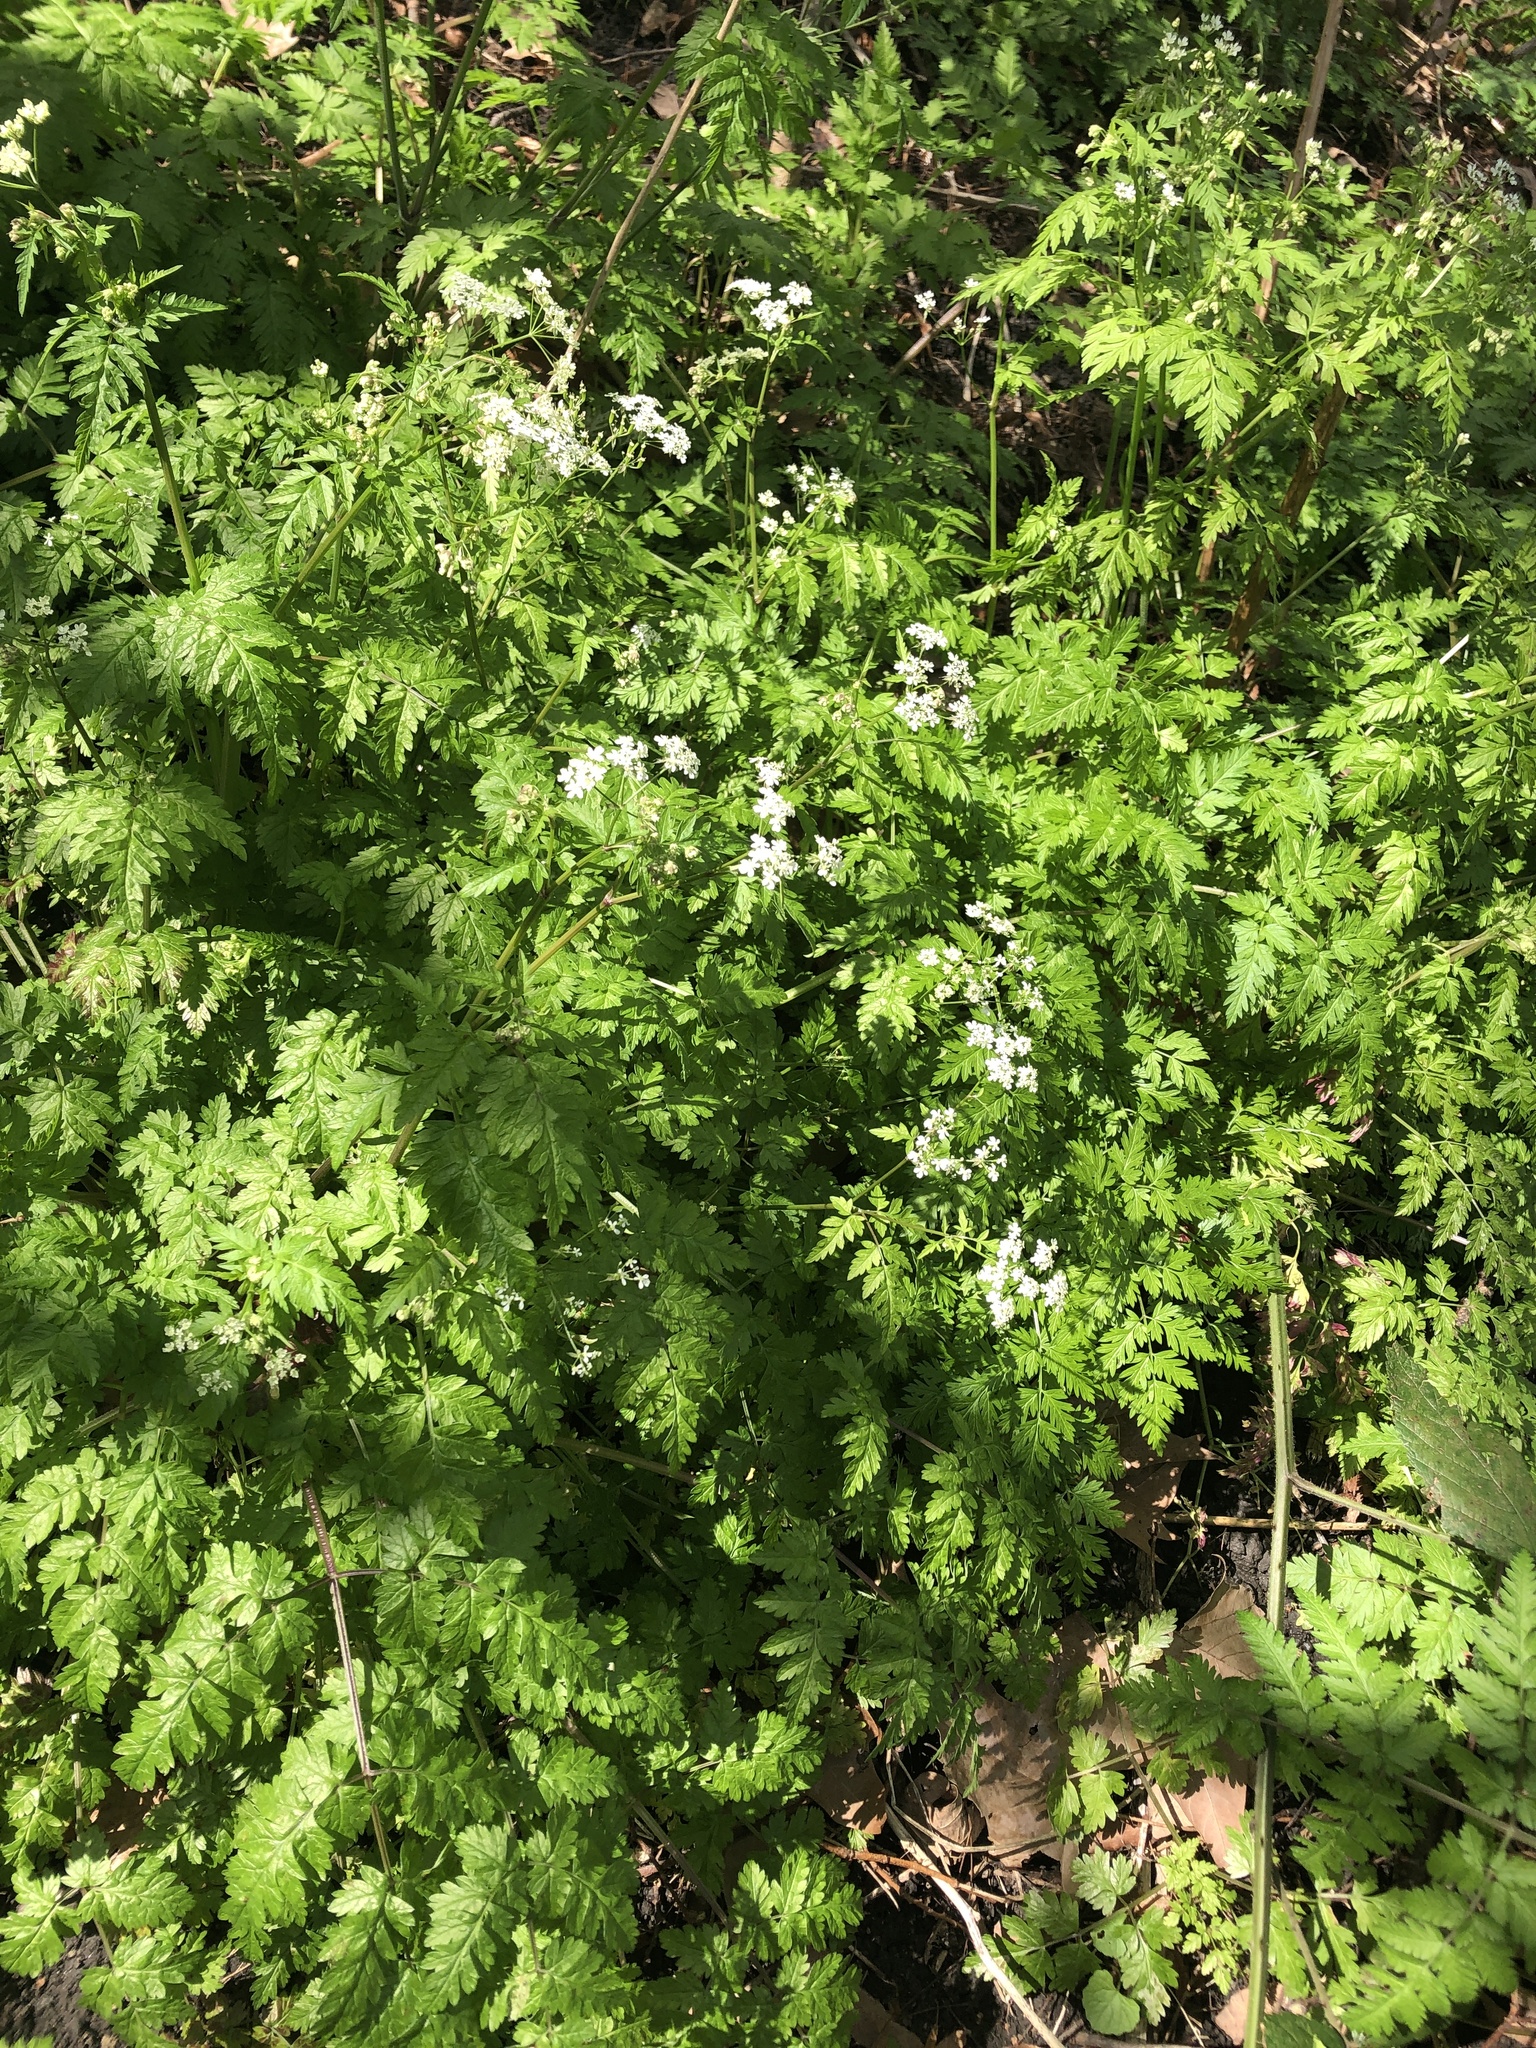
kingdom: Plantae
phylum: Tracheophyta
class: Magnoliopsida
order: Apiales
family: Apiaceae
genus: Anthriscus
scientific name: Anthriscus sylvestris
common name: Cow parsley
